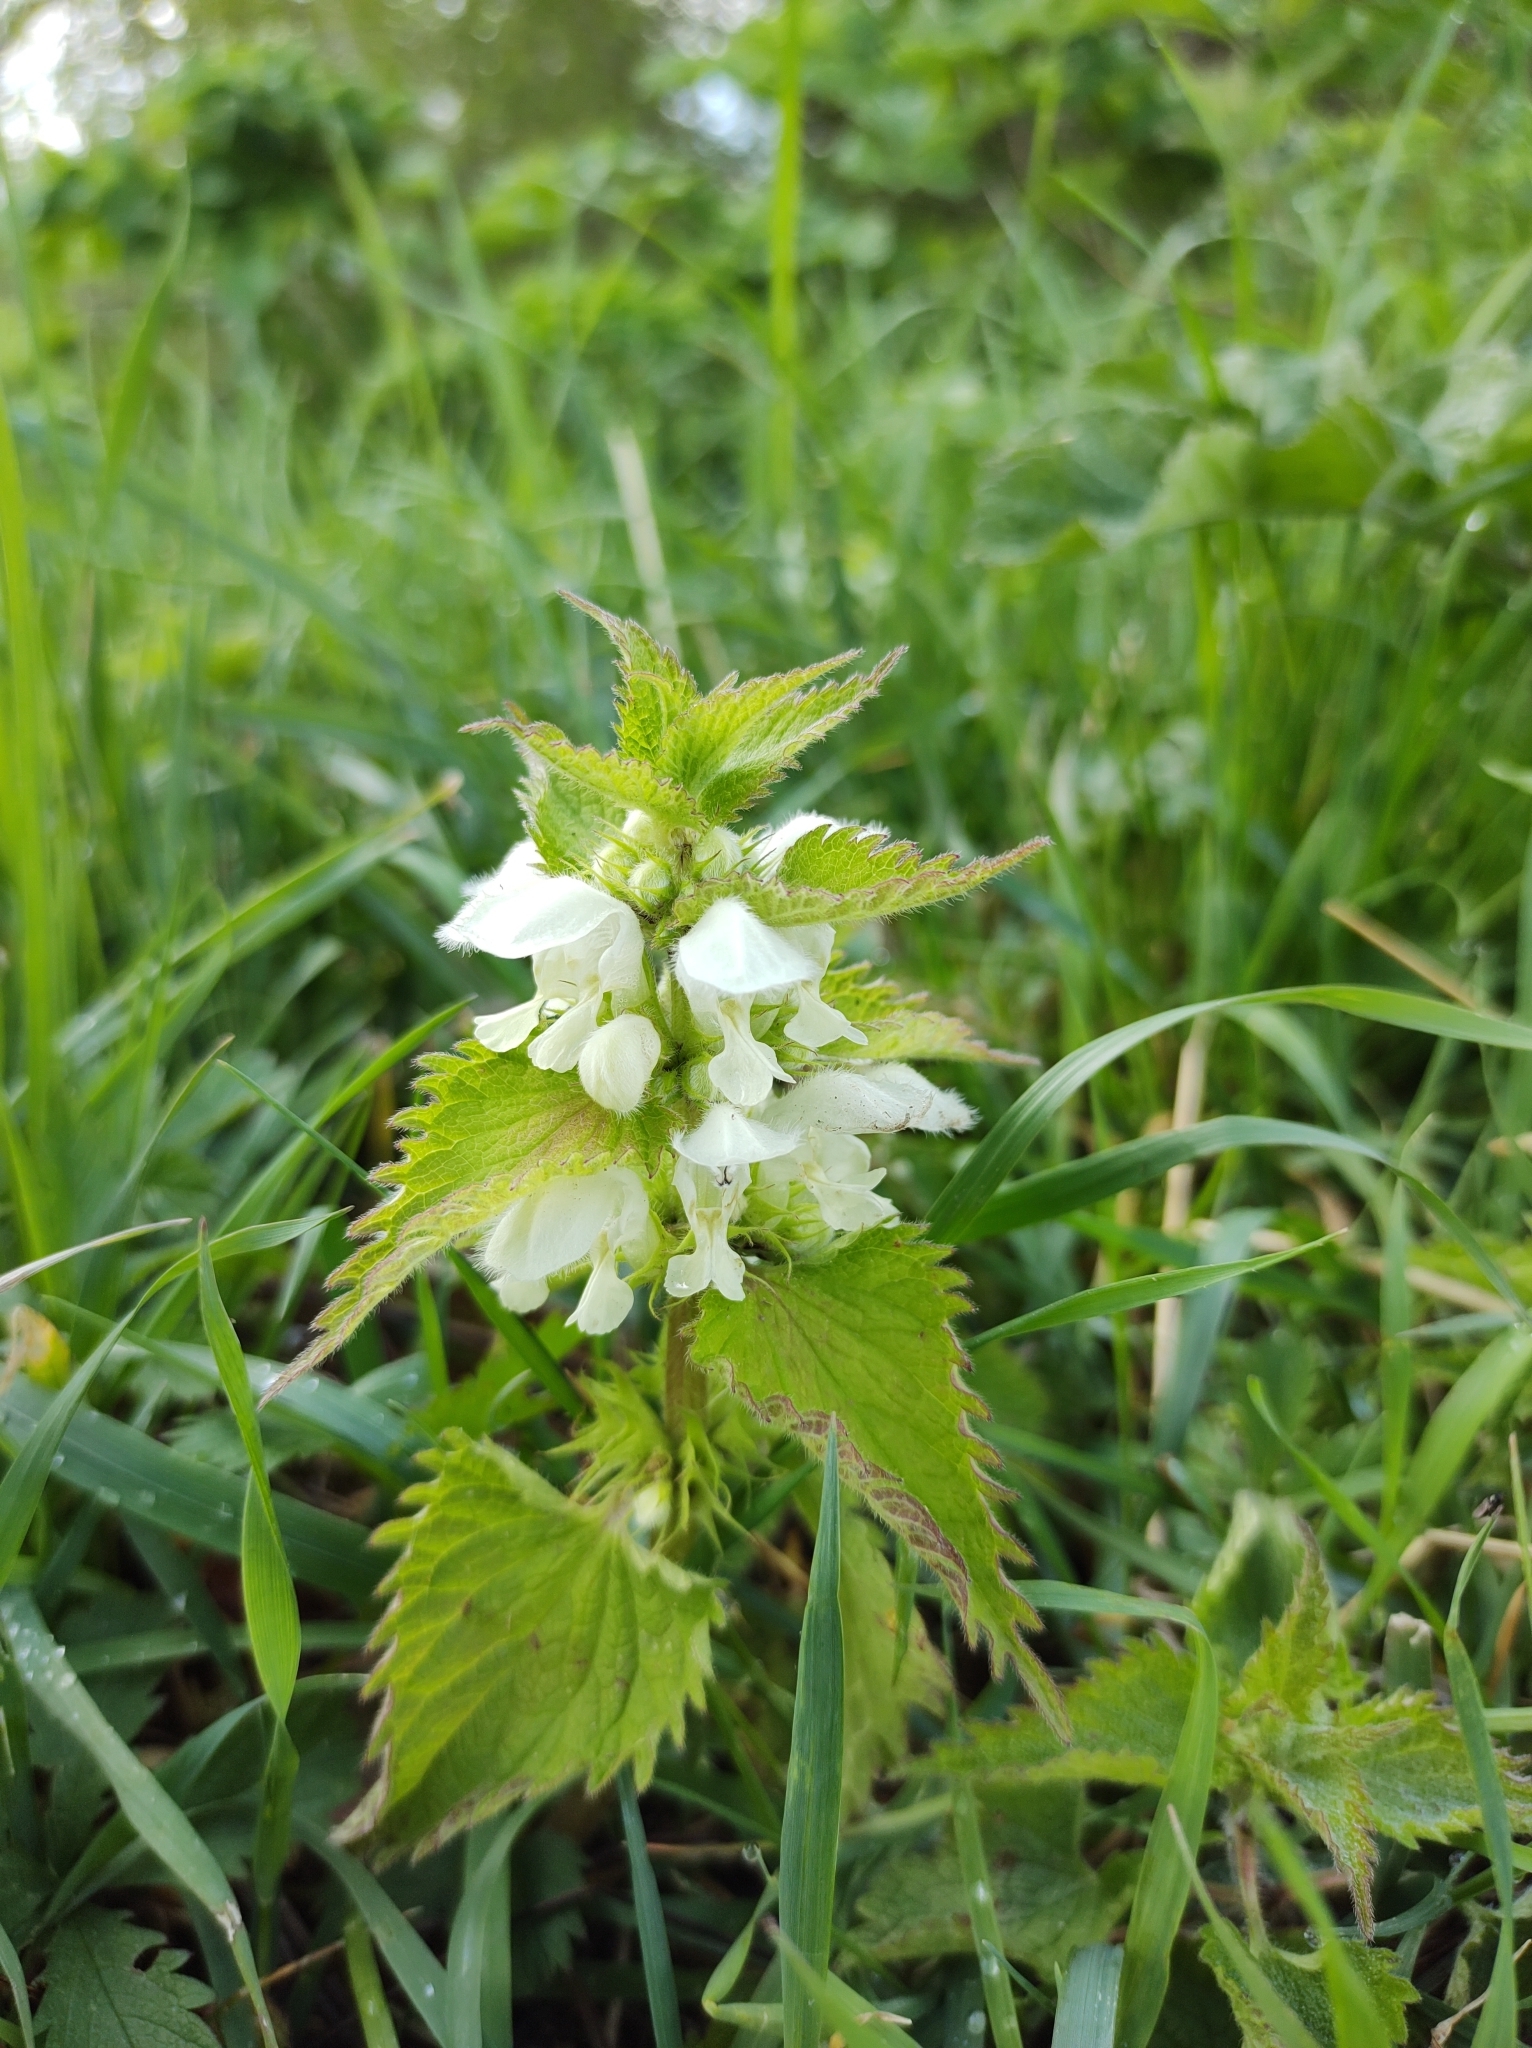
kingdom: Plantae
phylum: Tracheophyta
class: Magnoliopsida
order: Lamiales
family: Lamiaceae
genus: Lamium
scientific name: Lamium album
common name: White dead-nettle
